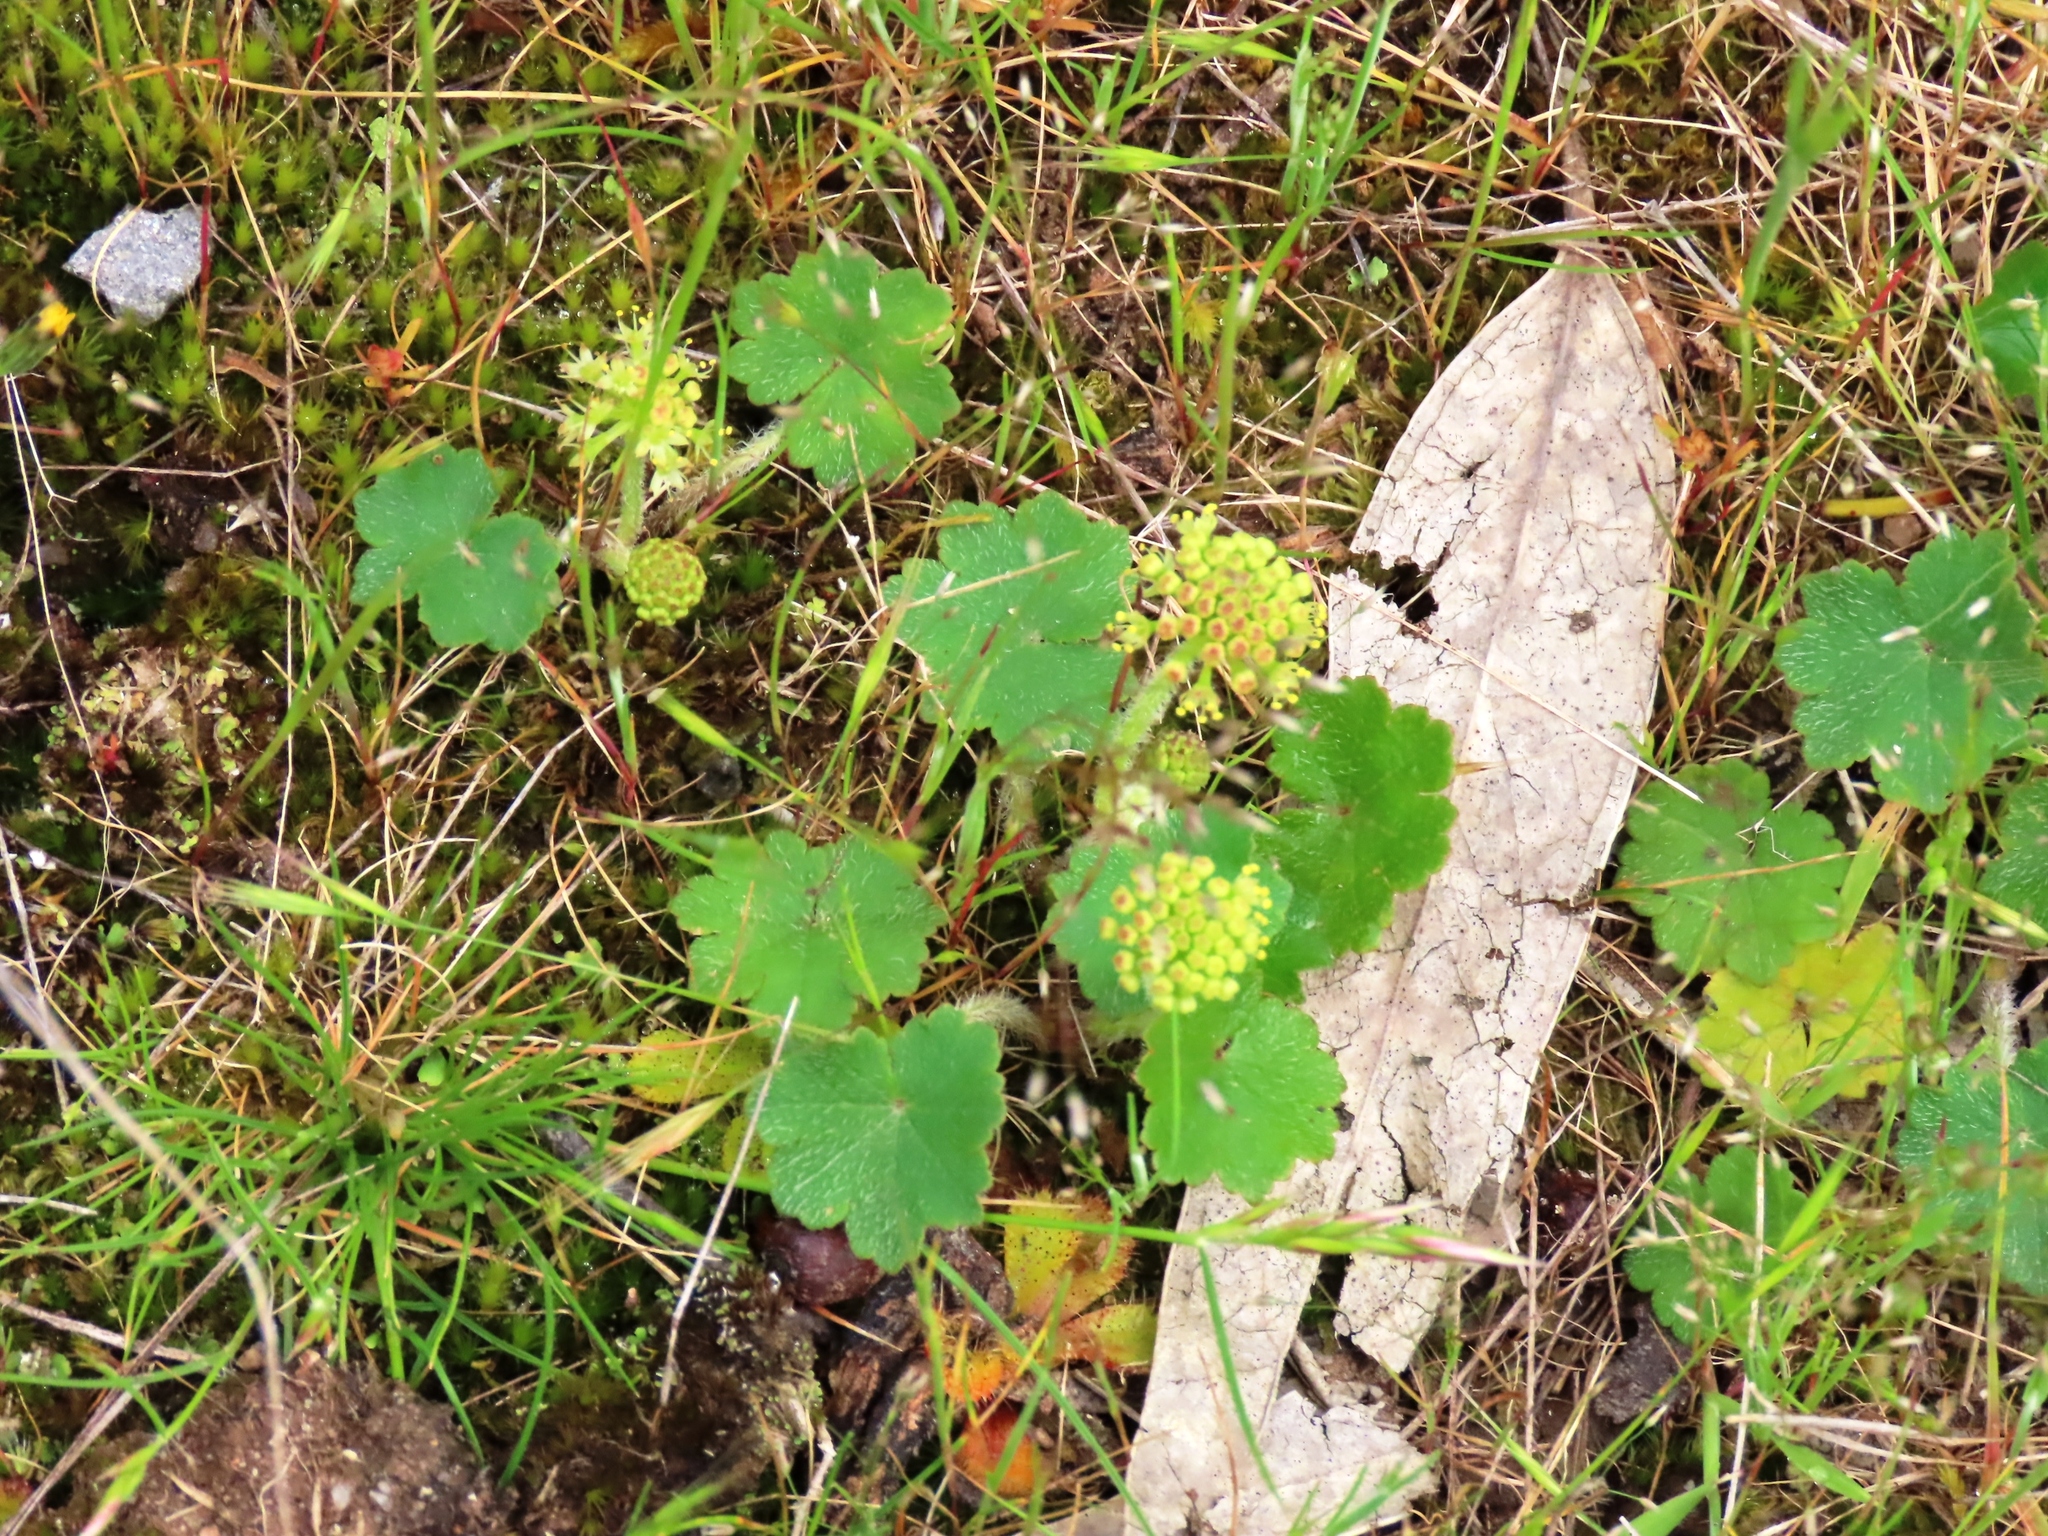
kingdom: Plantae
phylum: Tracheophyta
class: Magnoliopsida
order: Apiales
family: Araliaceae
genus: Hydrocotyle
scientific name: Hydrocotyle laxiflora
